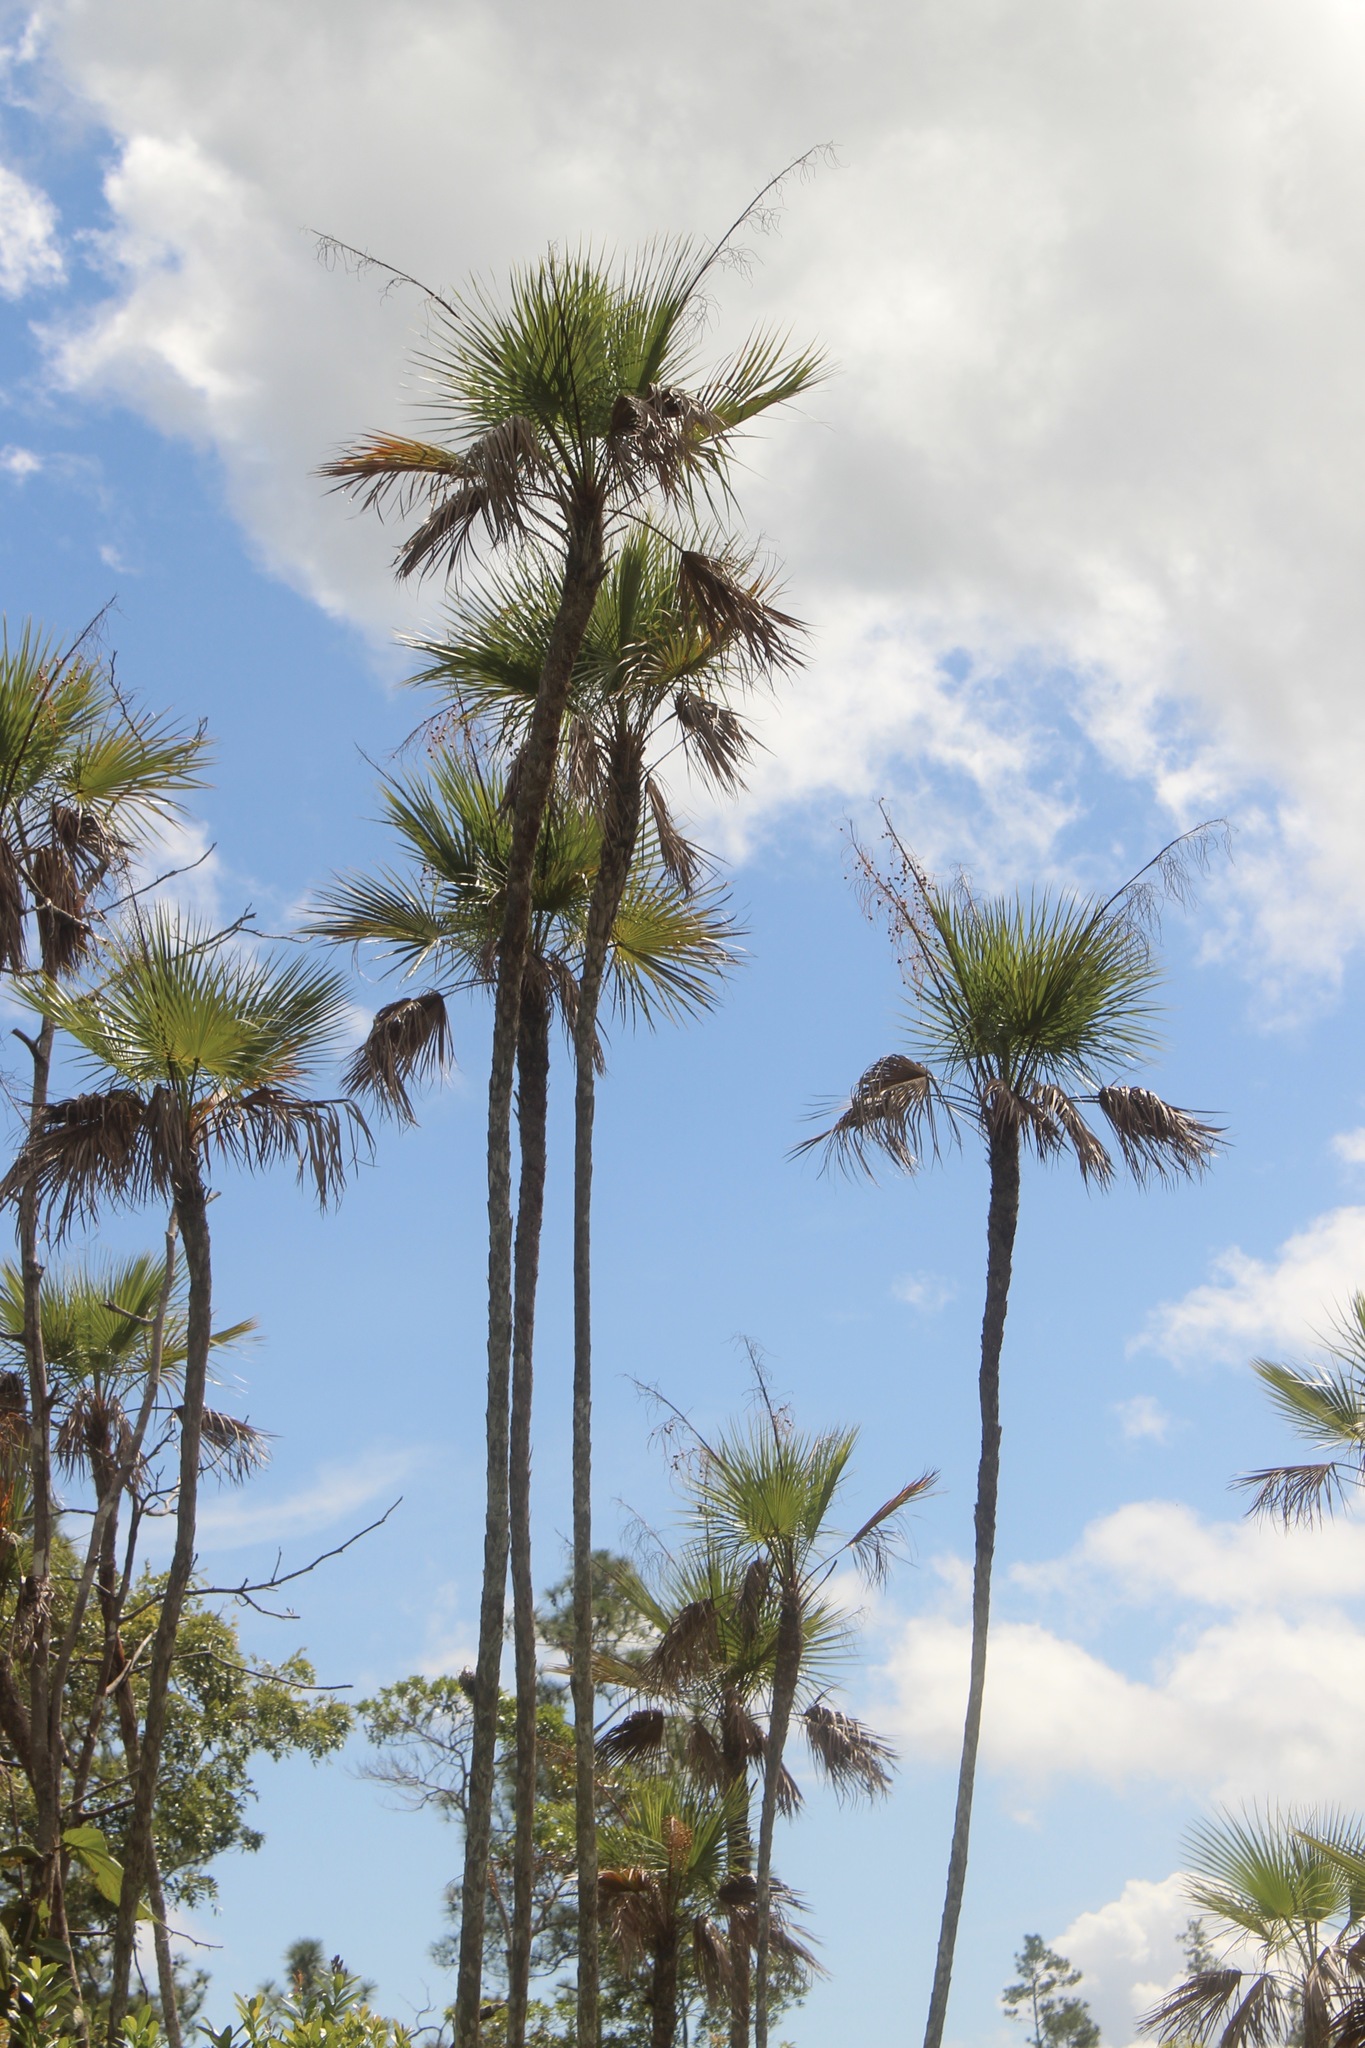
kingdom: Plantae
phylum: Tracheophyta
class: Liliopsida
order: Arecales
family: Arecaceae
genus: Acoelorraphe
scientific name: Acoelorraphe wrightii
